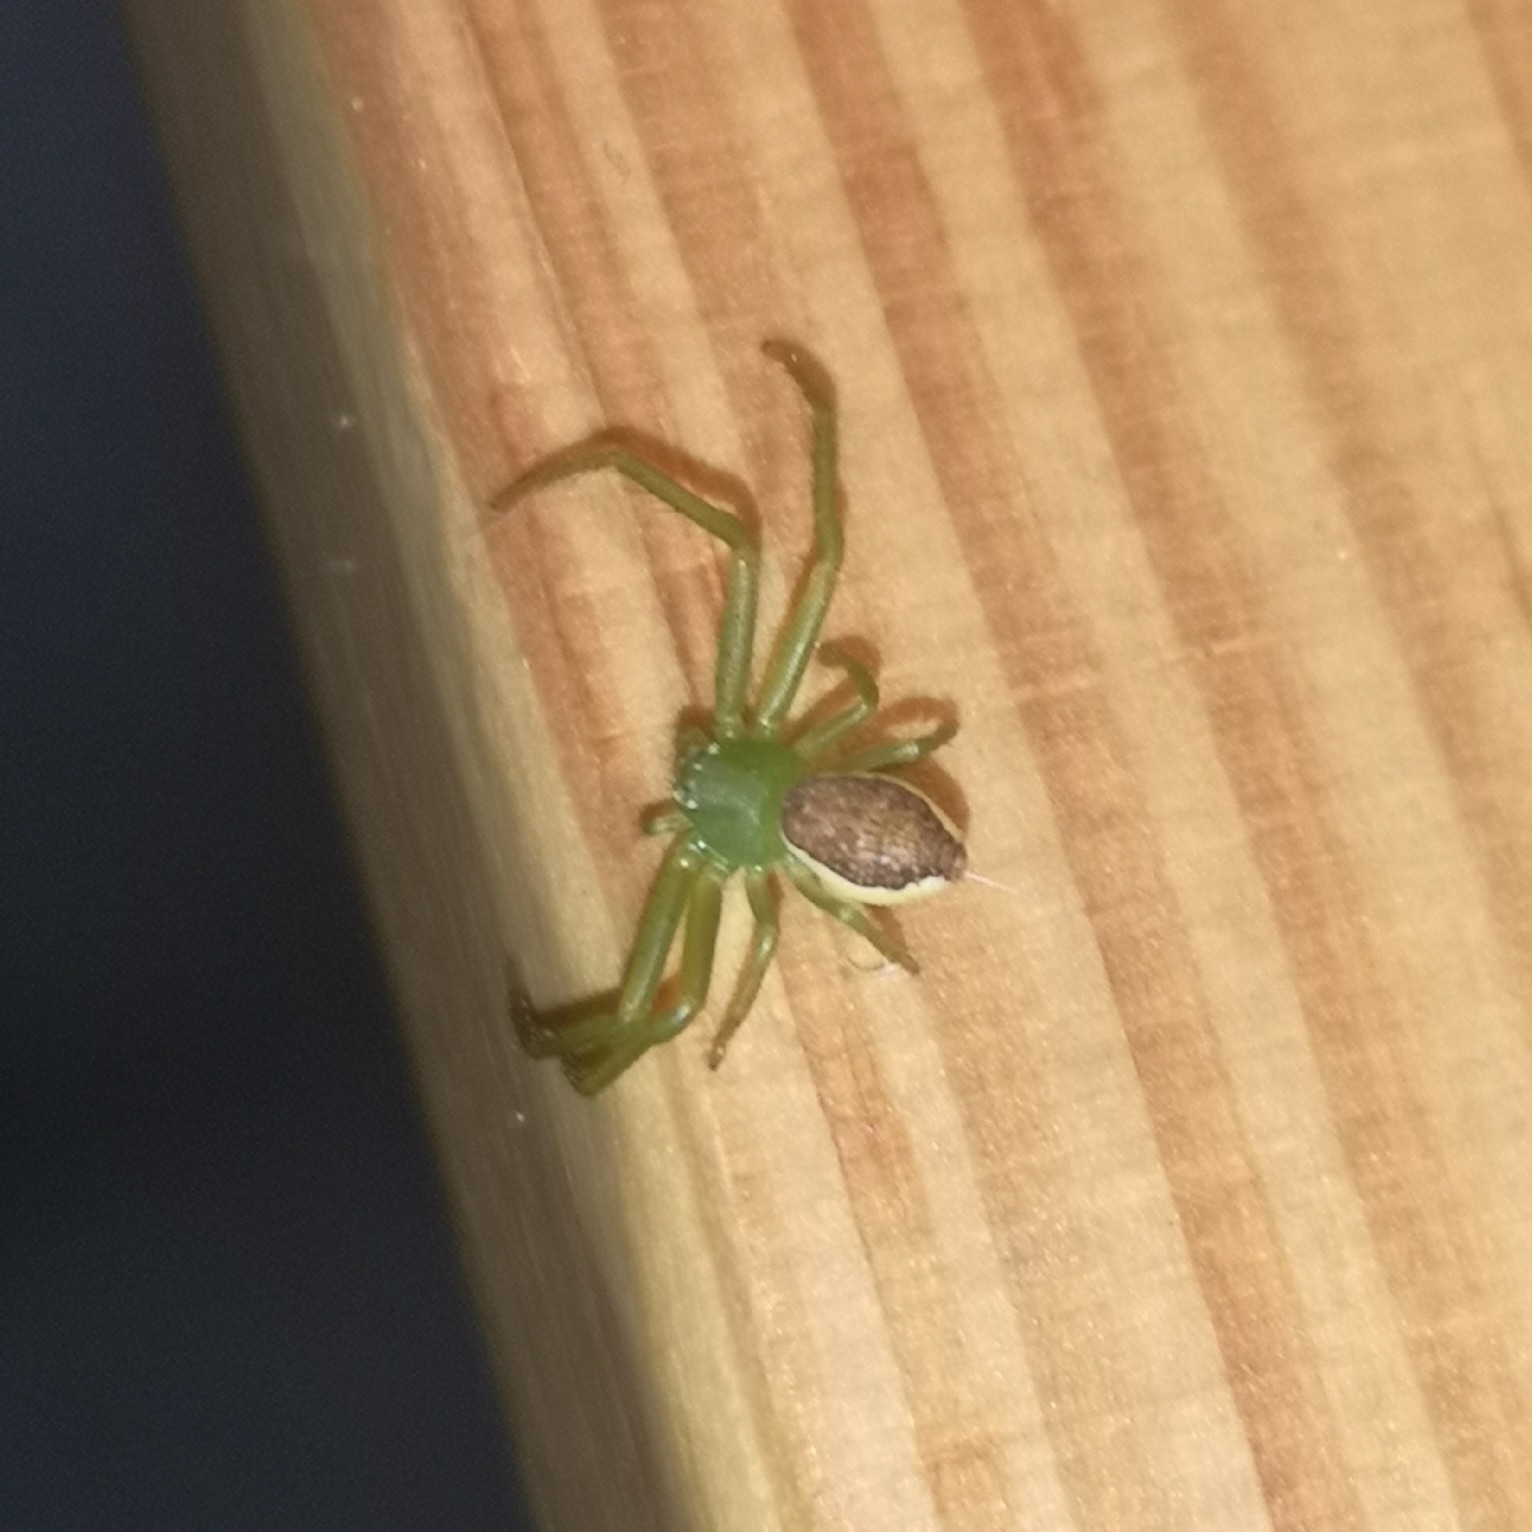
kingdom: Animalia
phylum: Arthropoda
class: Arachnida
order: Araneae
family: Thomisidae
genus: Diaea
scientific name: Diaea dorsata
